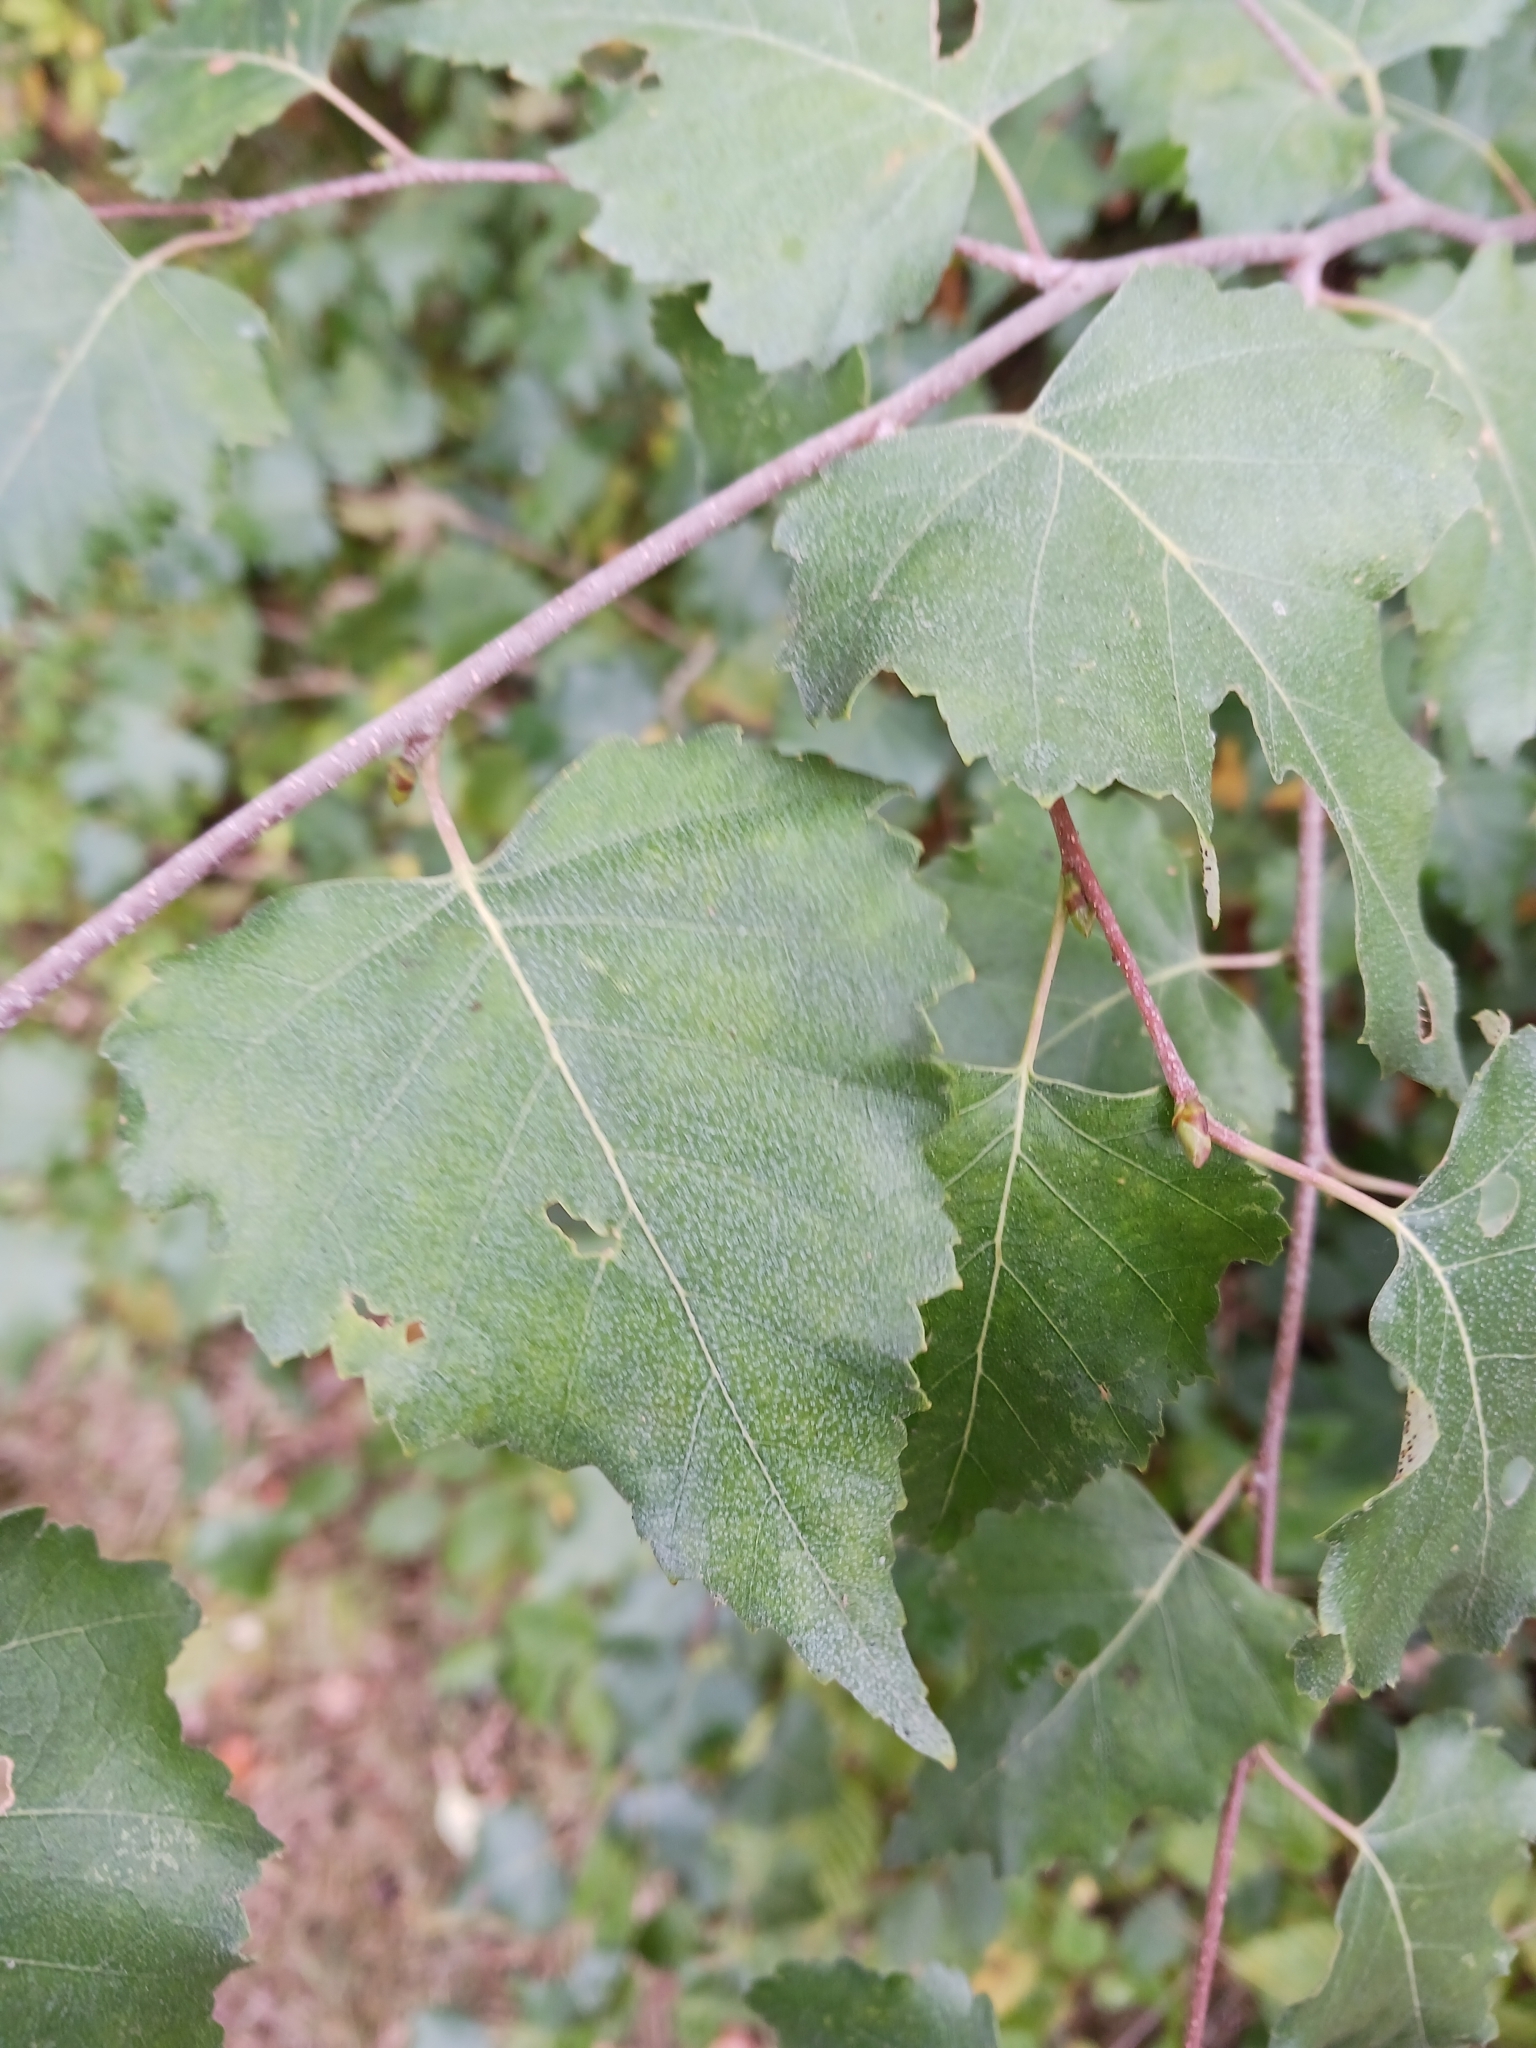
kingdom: Fungi
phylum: Ascomycota
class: Leotiomycetes
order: Helotiales
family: Erysiphaceae
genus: Phyllactinia
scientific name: Phyllactinia guttata
